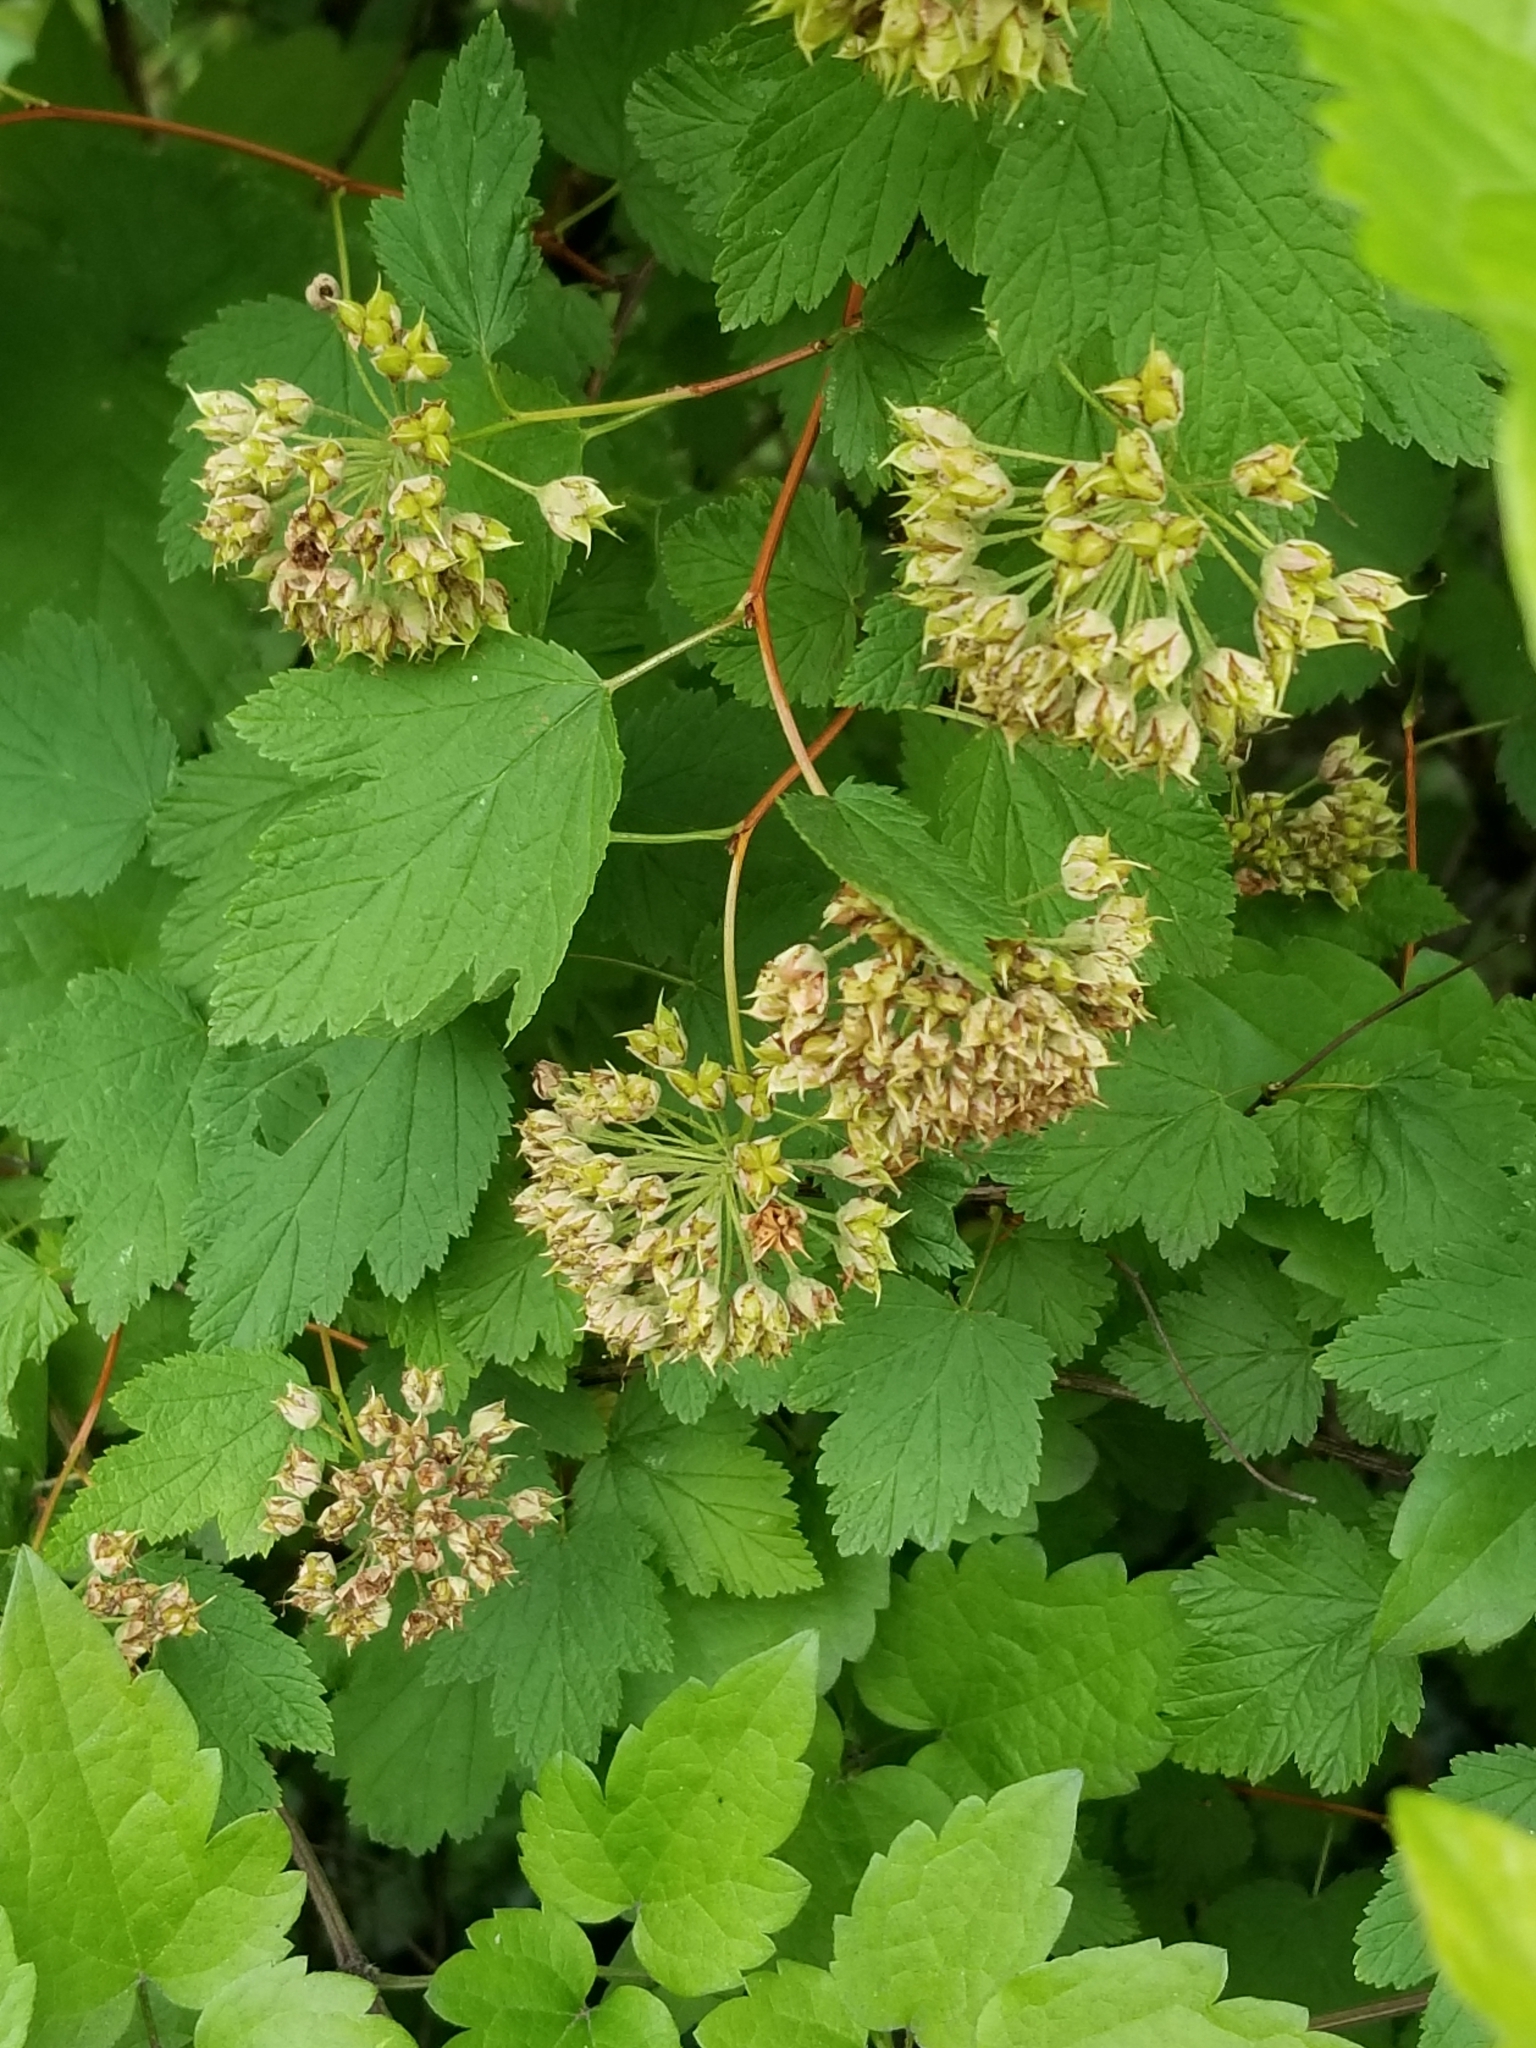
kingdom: Plantae
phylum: Tracheophyta
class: Magnoliopsida
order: Rosales
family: Rosaceae
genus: Physocarpus
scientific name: Physocarpus capitatus
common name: Pacific ninebark
